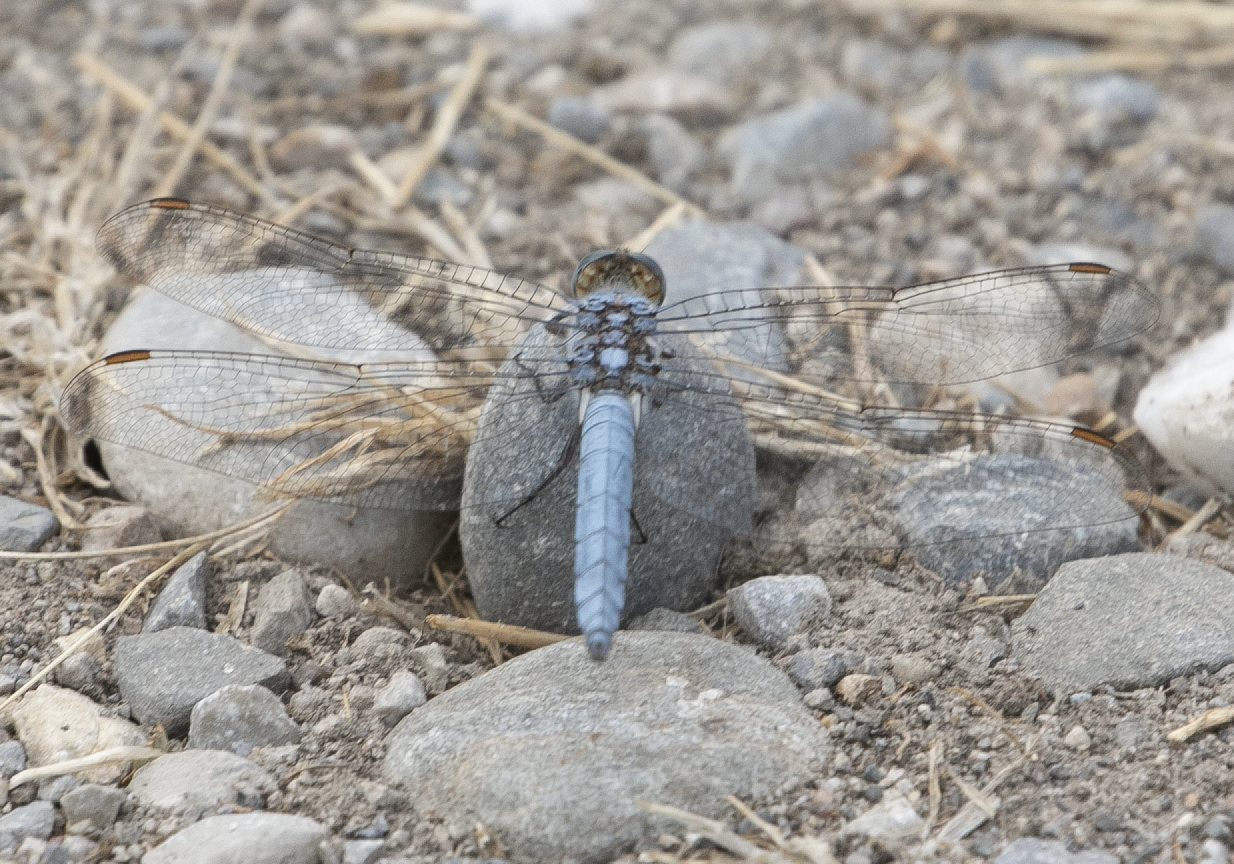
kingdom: Animalia
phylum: Arthropoda
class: Insecta
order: Odonata
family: Libellulidae
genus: Orthetrum
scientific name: Orthetrum brunneum
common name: Southern skimmer
